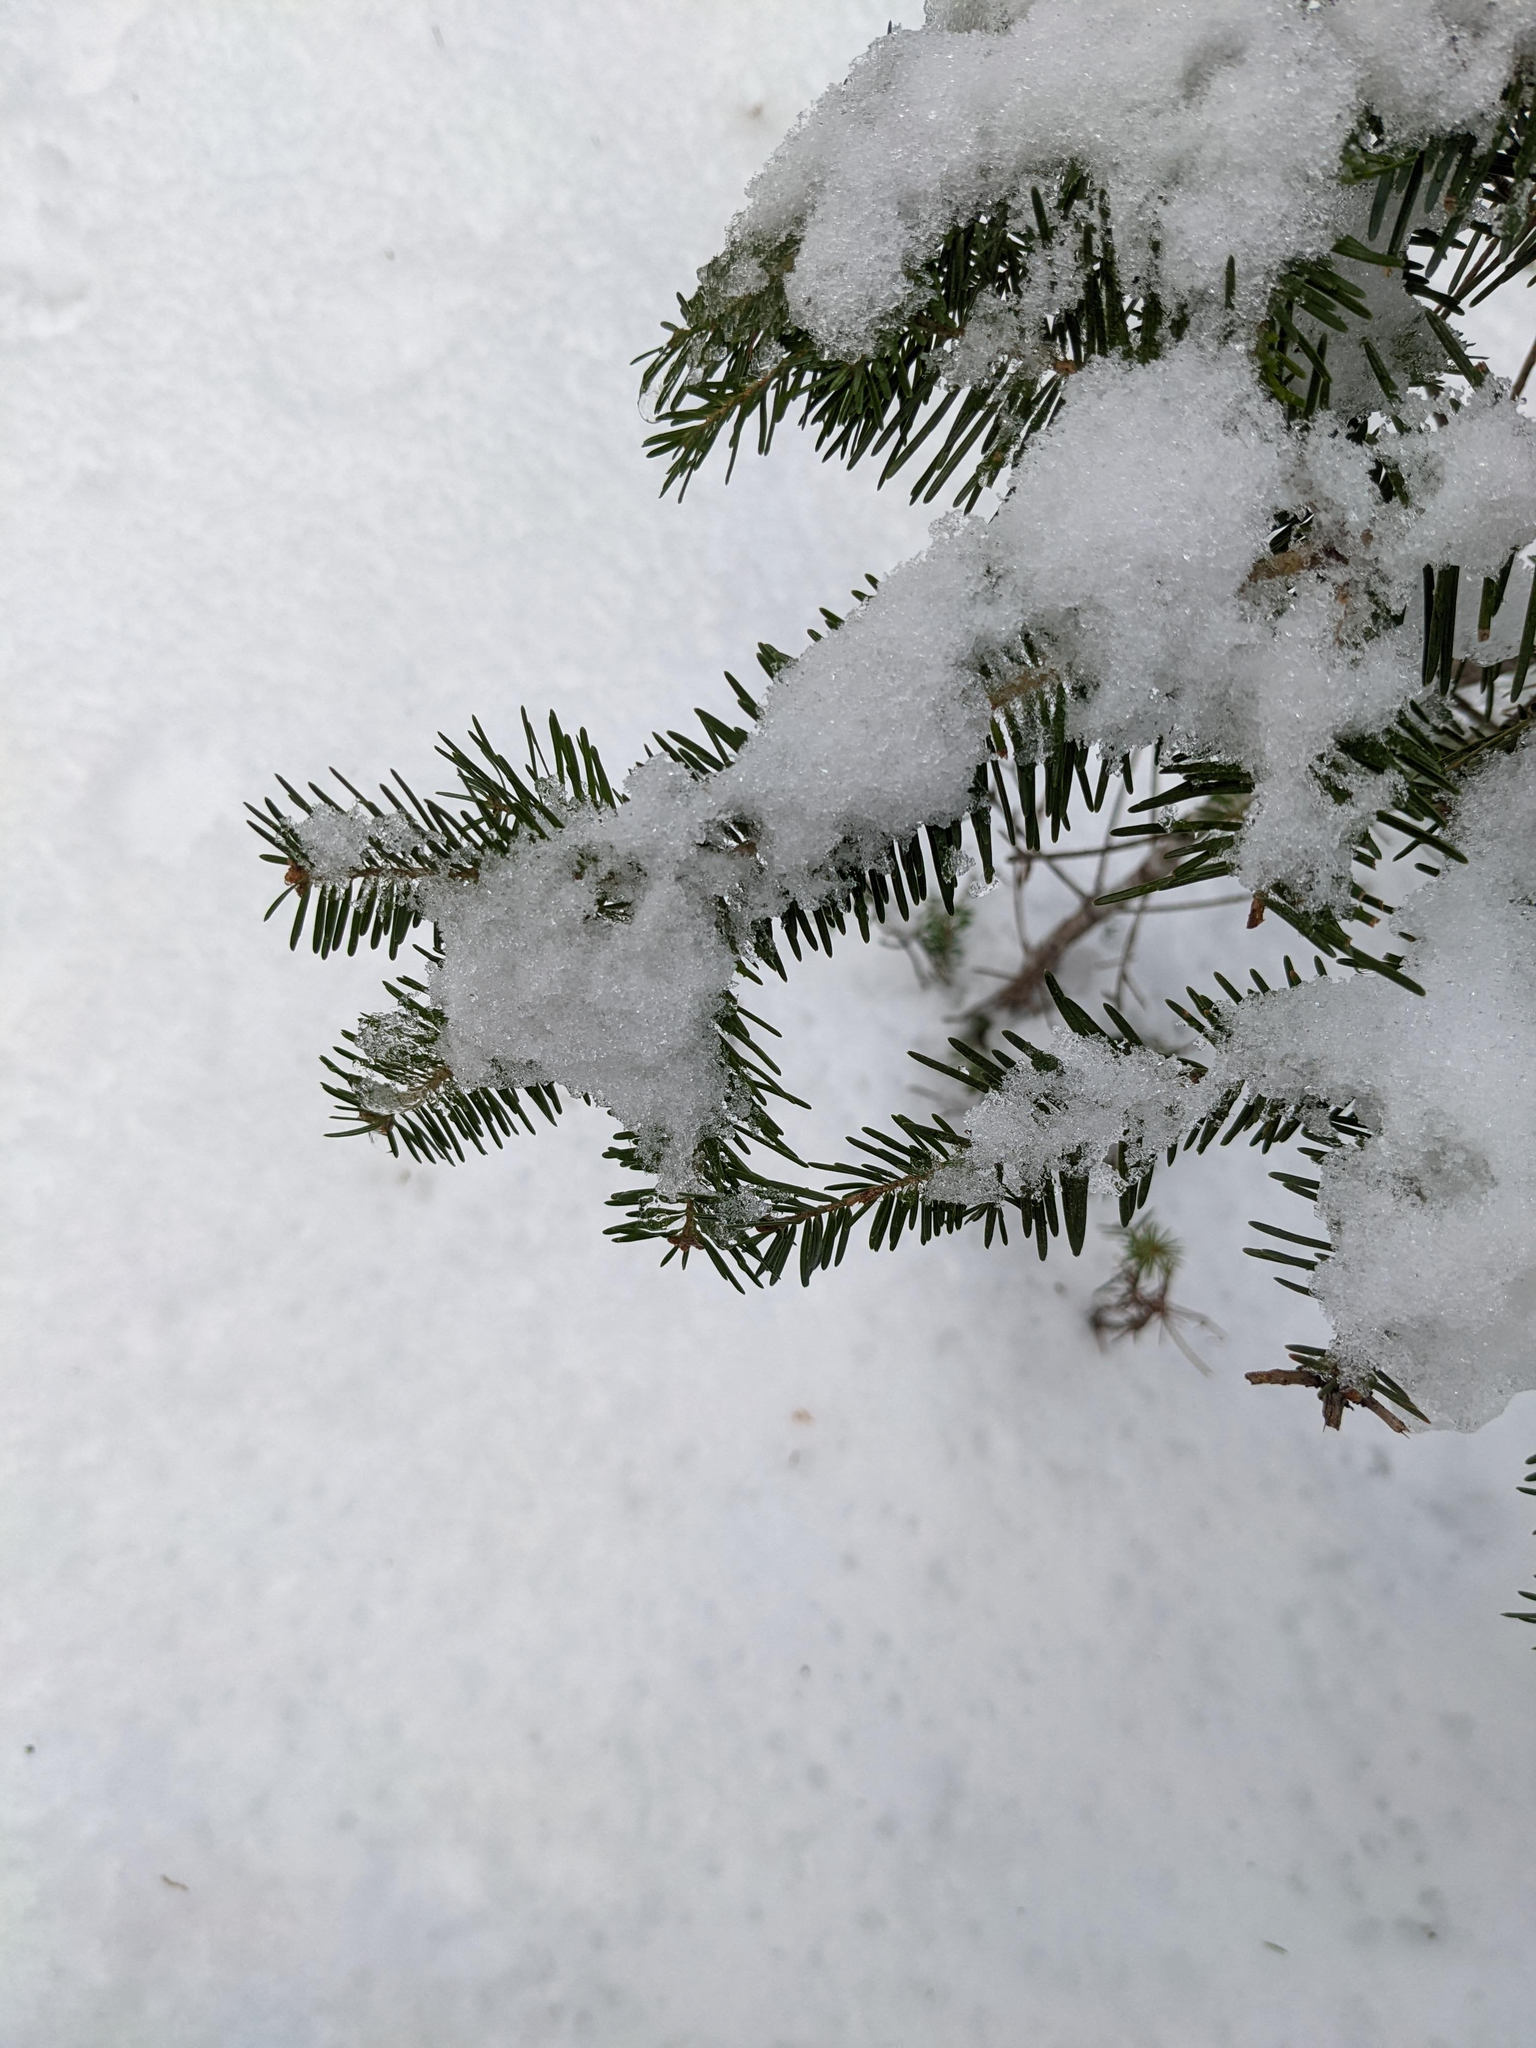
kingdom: Plantae
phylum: Tracheophyta
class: Pinopsida
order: Pinales
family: Pinaceae
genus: Abies
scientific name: Abies balsamea
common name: Balsam fir
